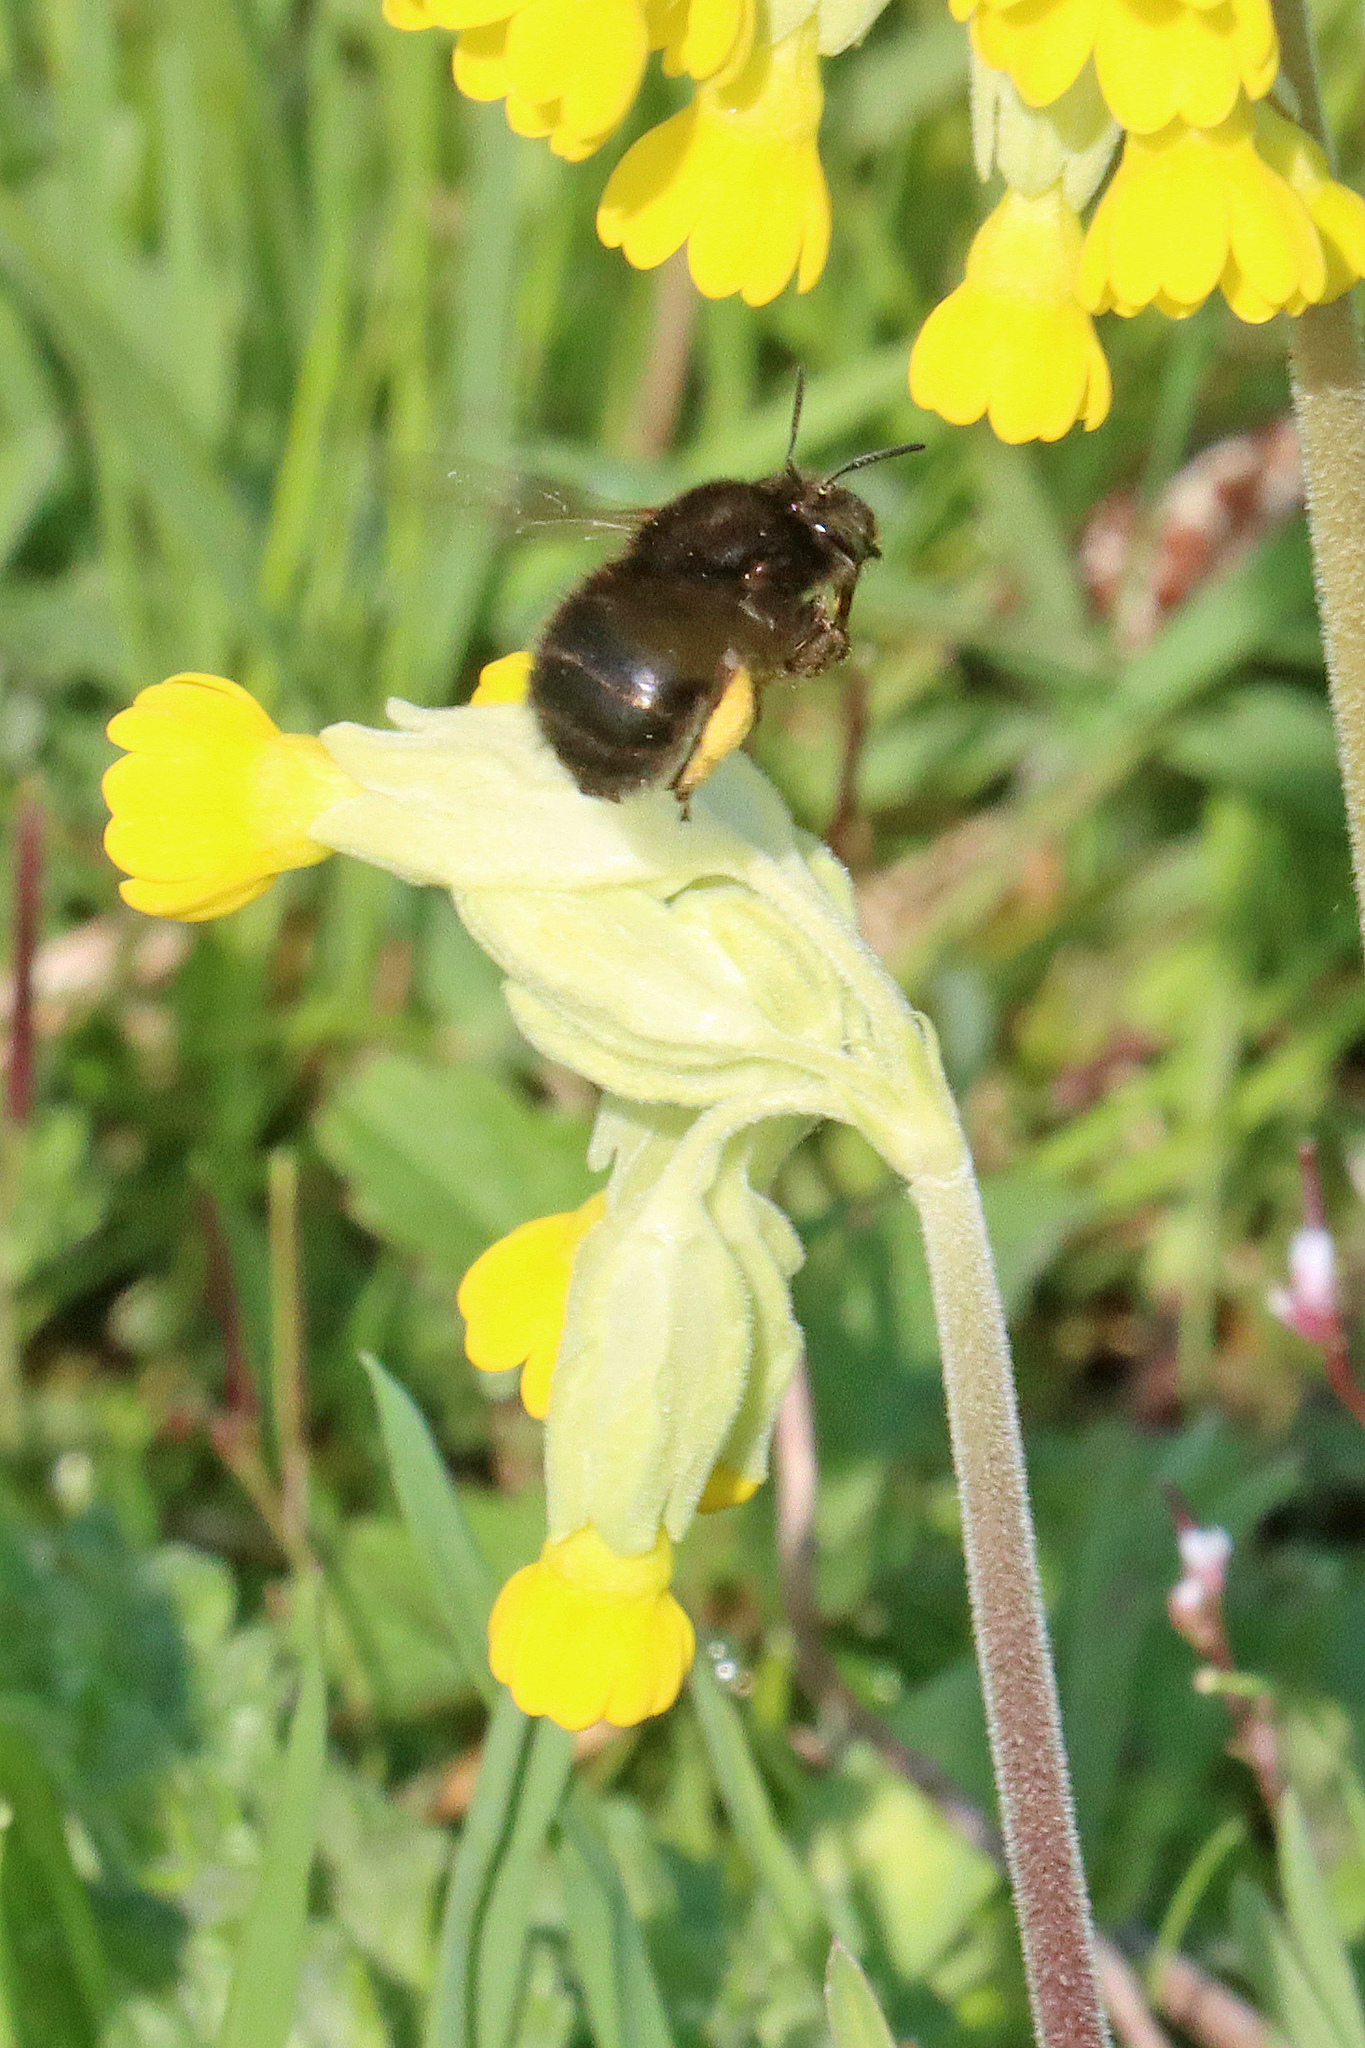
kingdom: Animalia
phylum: Arthropoda
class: Insecta
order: Hymenoptera
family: Apidae
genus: Anthophora
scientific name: Anthophora plumipes
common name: Hairy-footed flower bee
